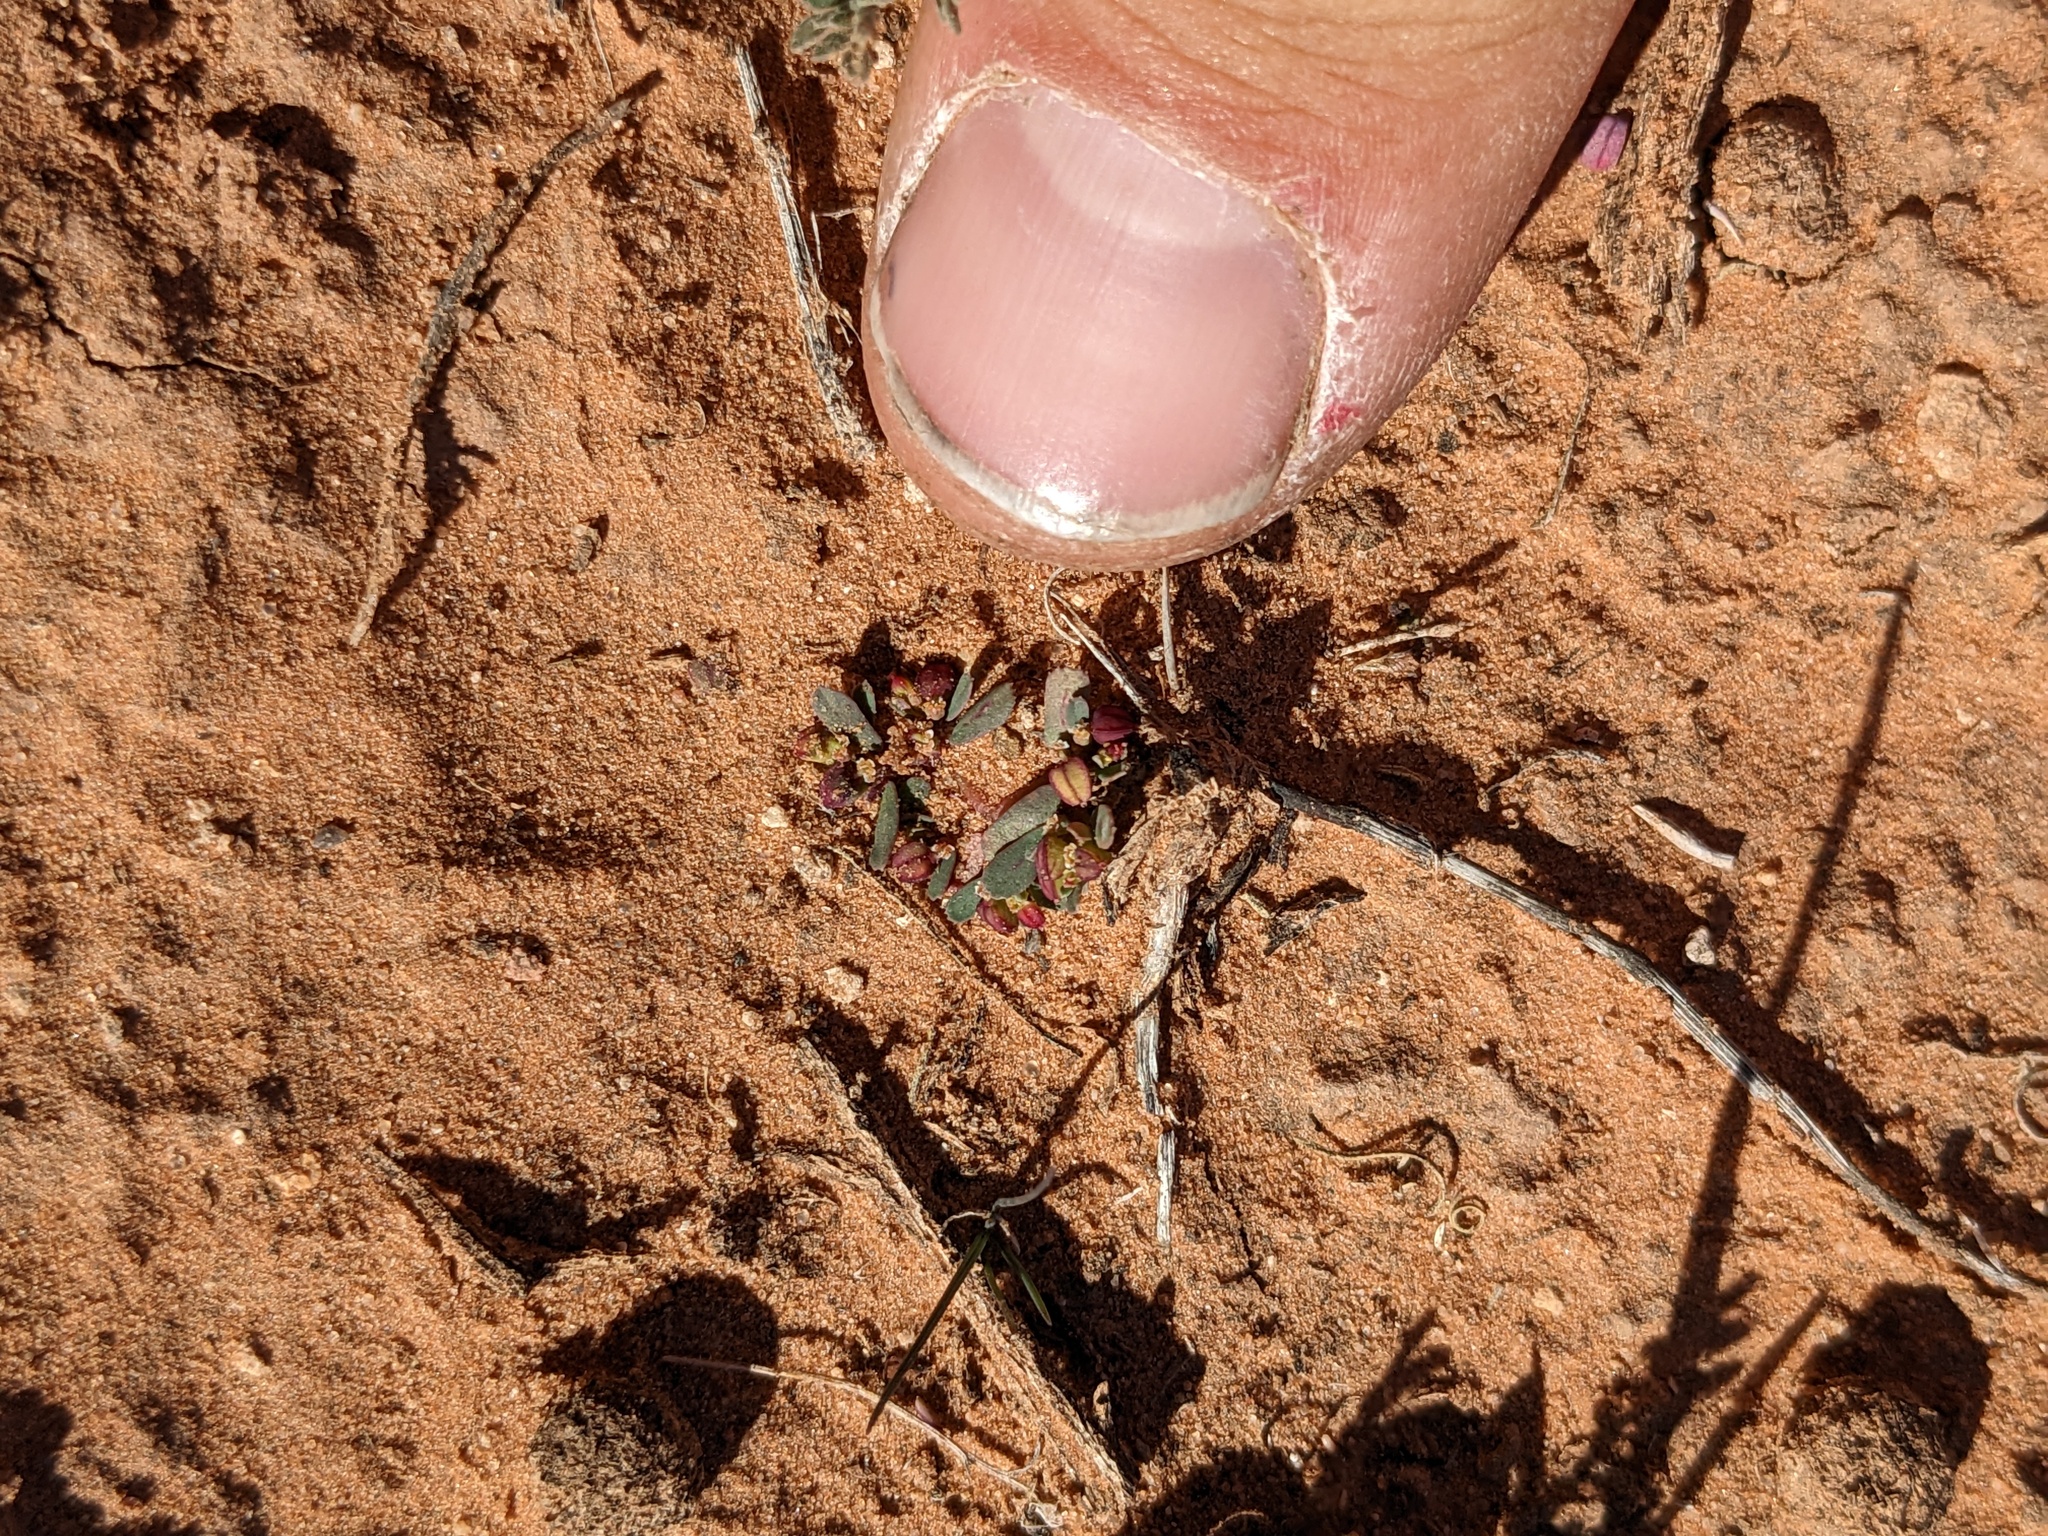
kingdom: Plantae
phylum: Tracheophyta
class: Magnoliopsida
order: Malpighiales
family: Euphorbiaceae
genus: Euphorbia
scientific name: Euphorbia serpillifolia
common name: Thyme-leaf spurge
